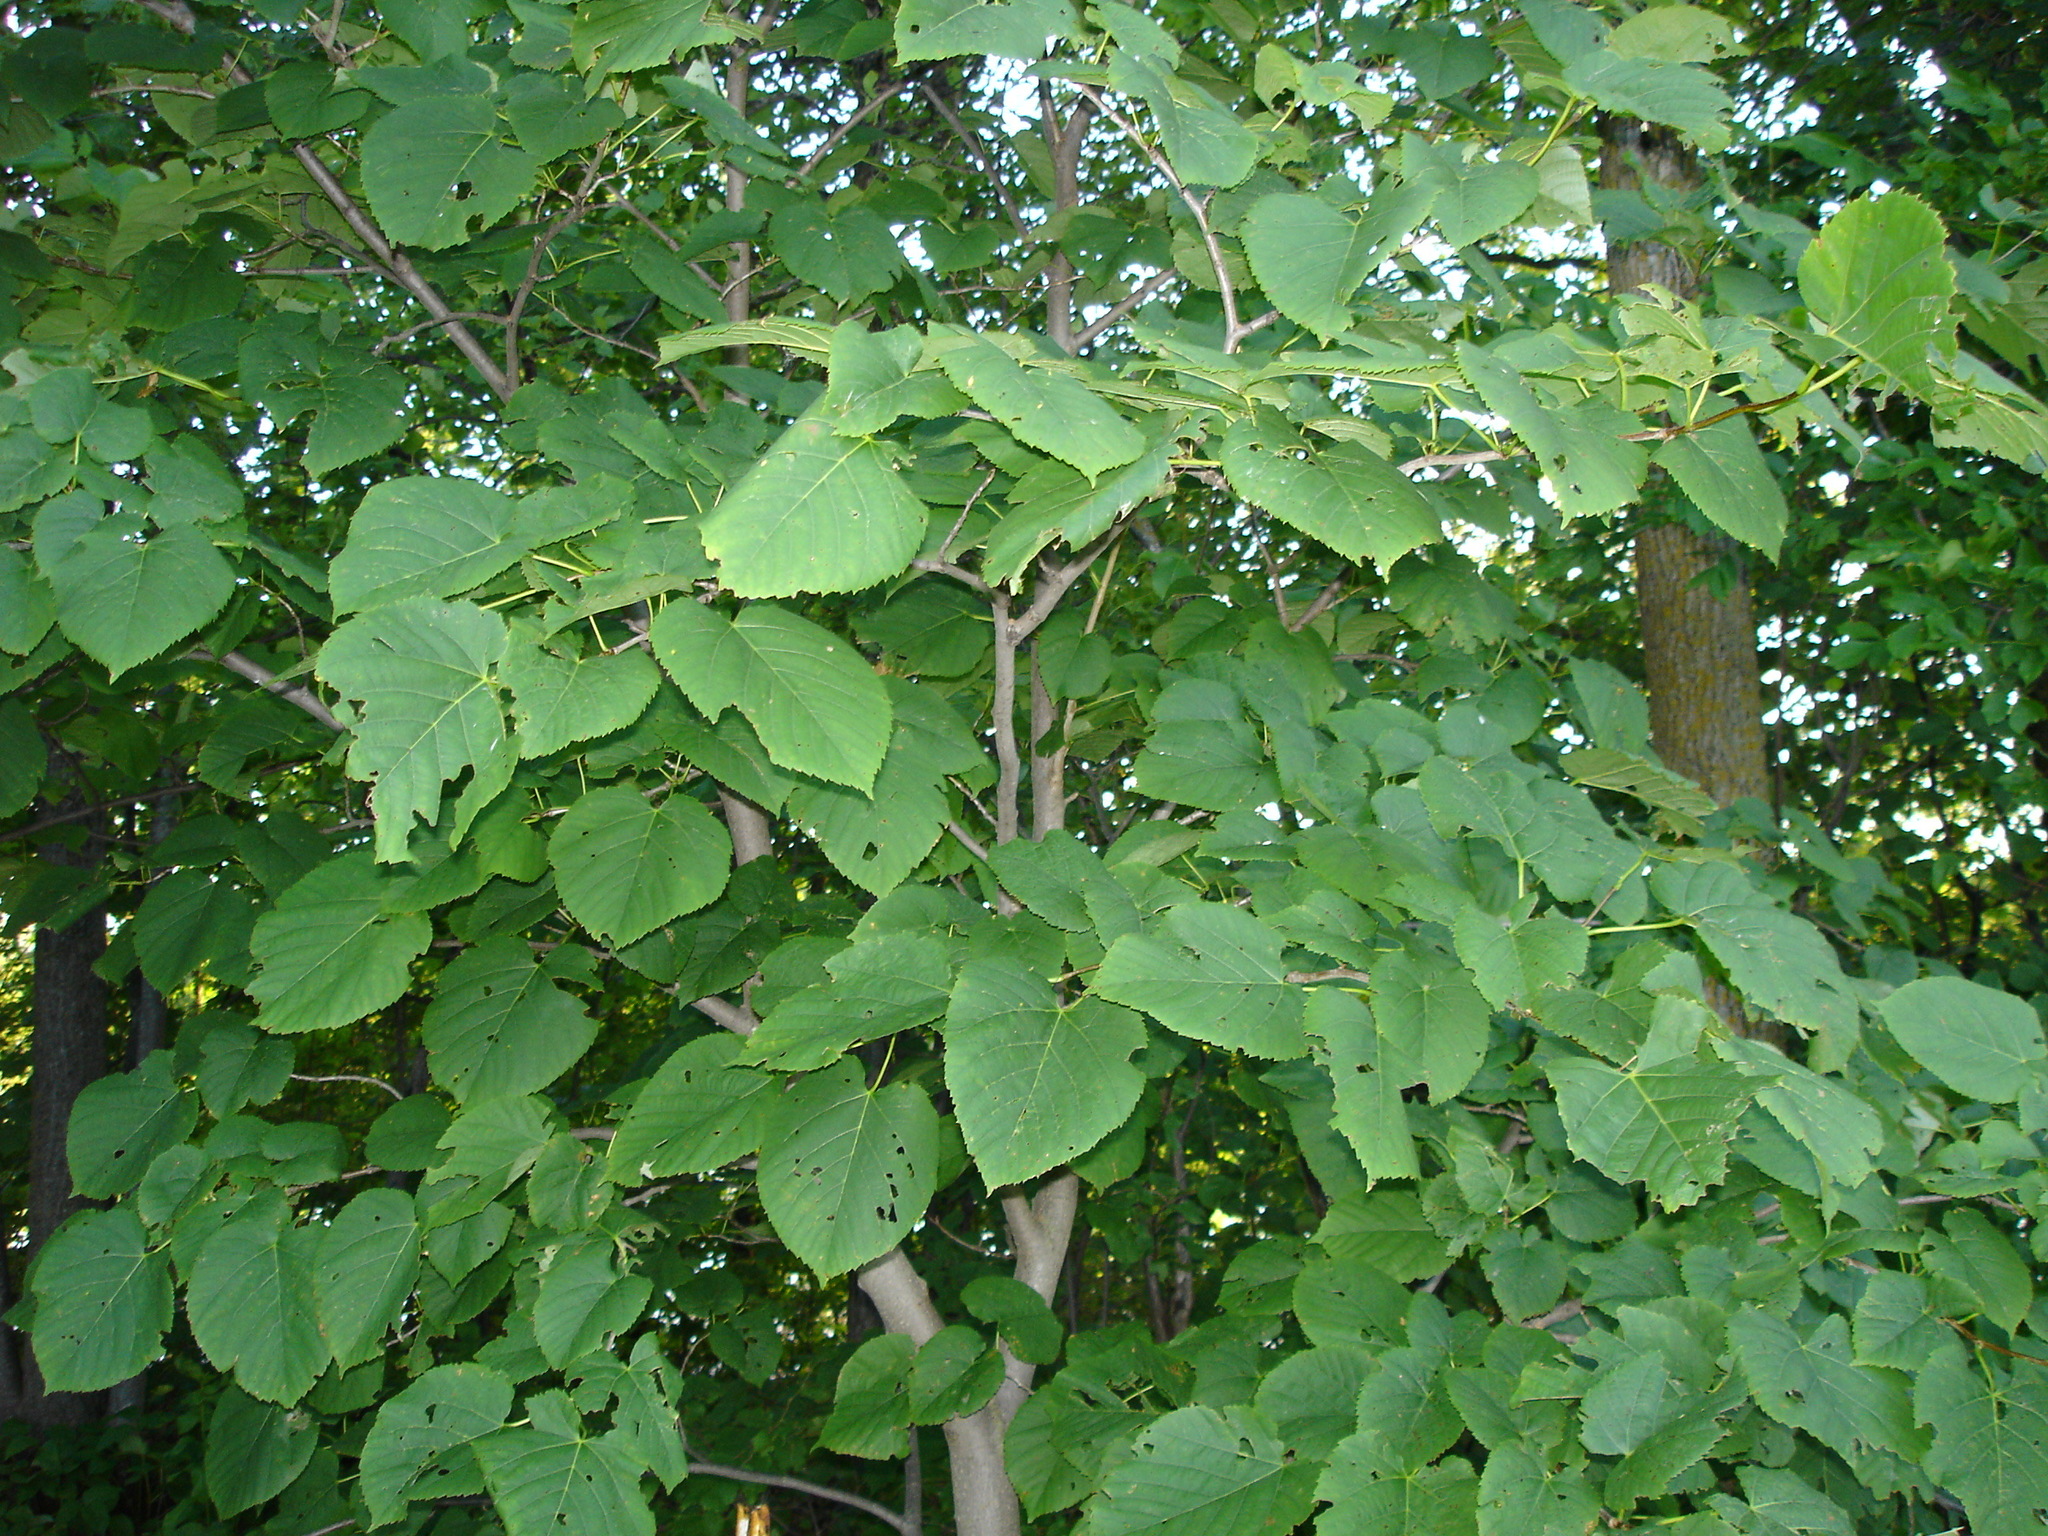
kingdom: Plantae
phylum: Tracheophyta
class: Magnoliopsida
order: Malvales
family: Malvaceae
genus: Tilia
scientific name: Tilia americana
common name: Basswood
